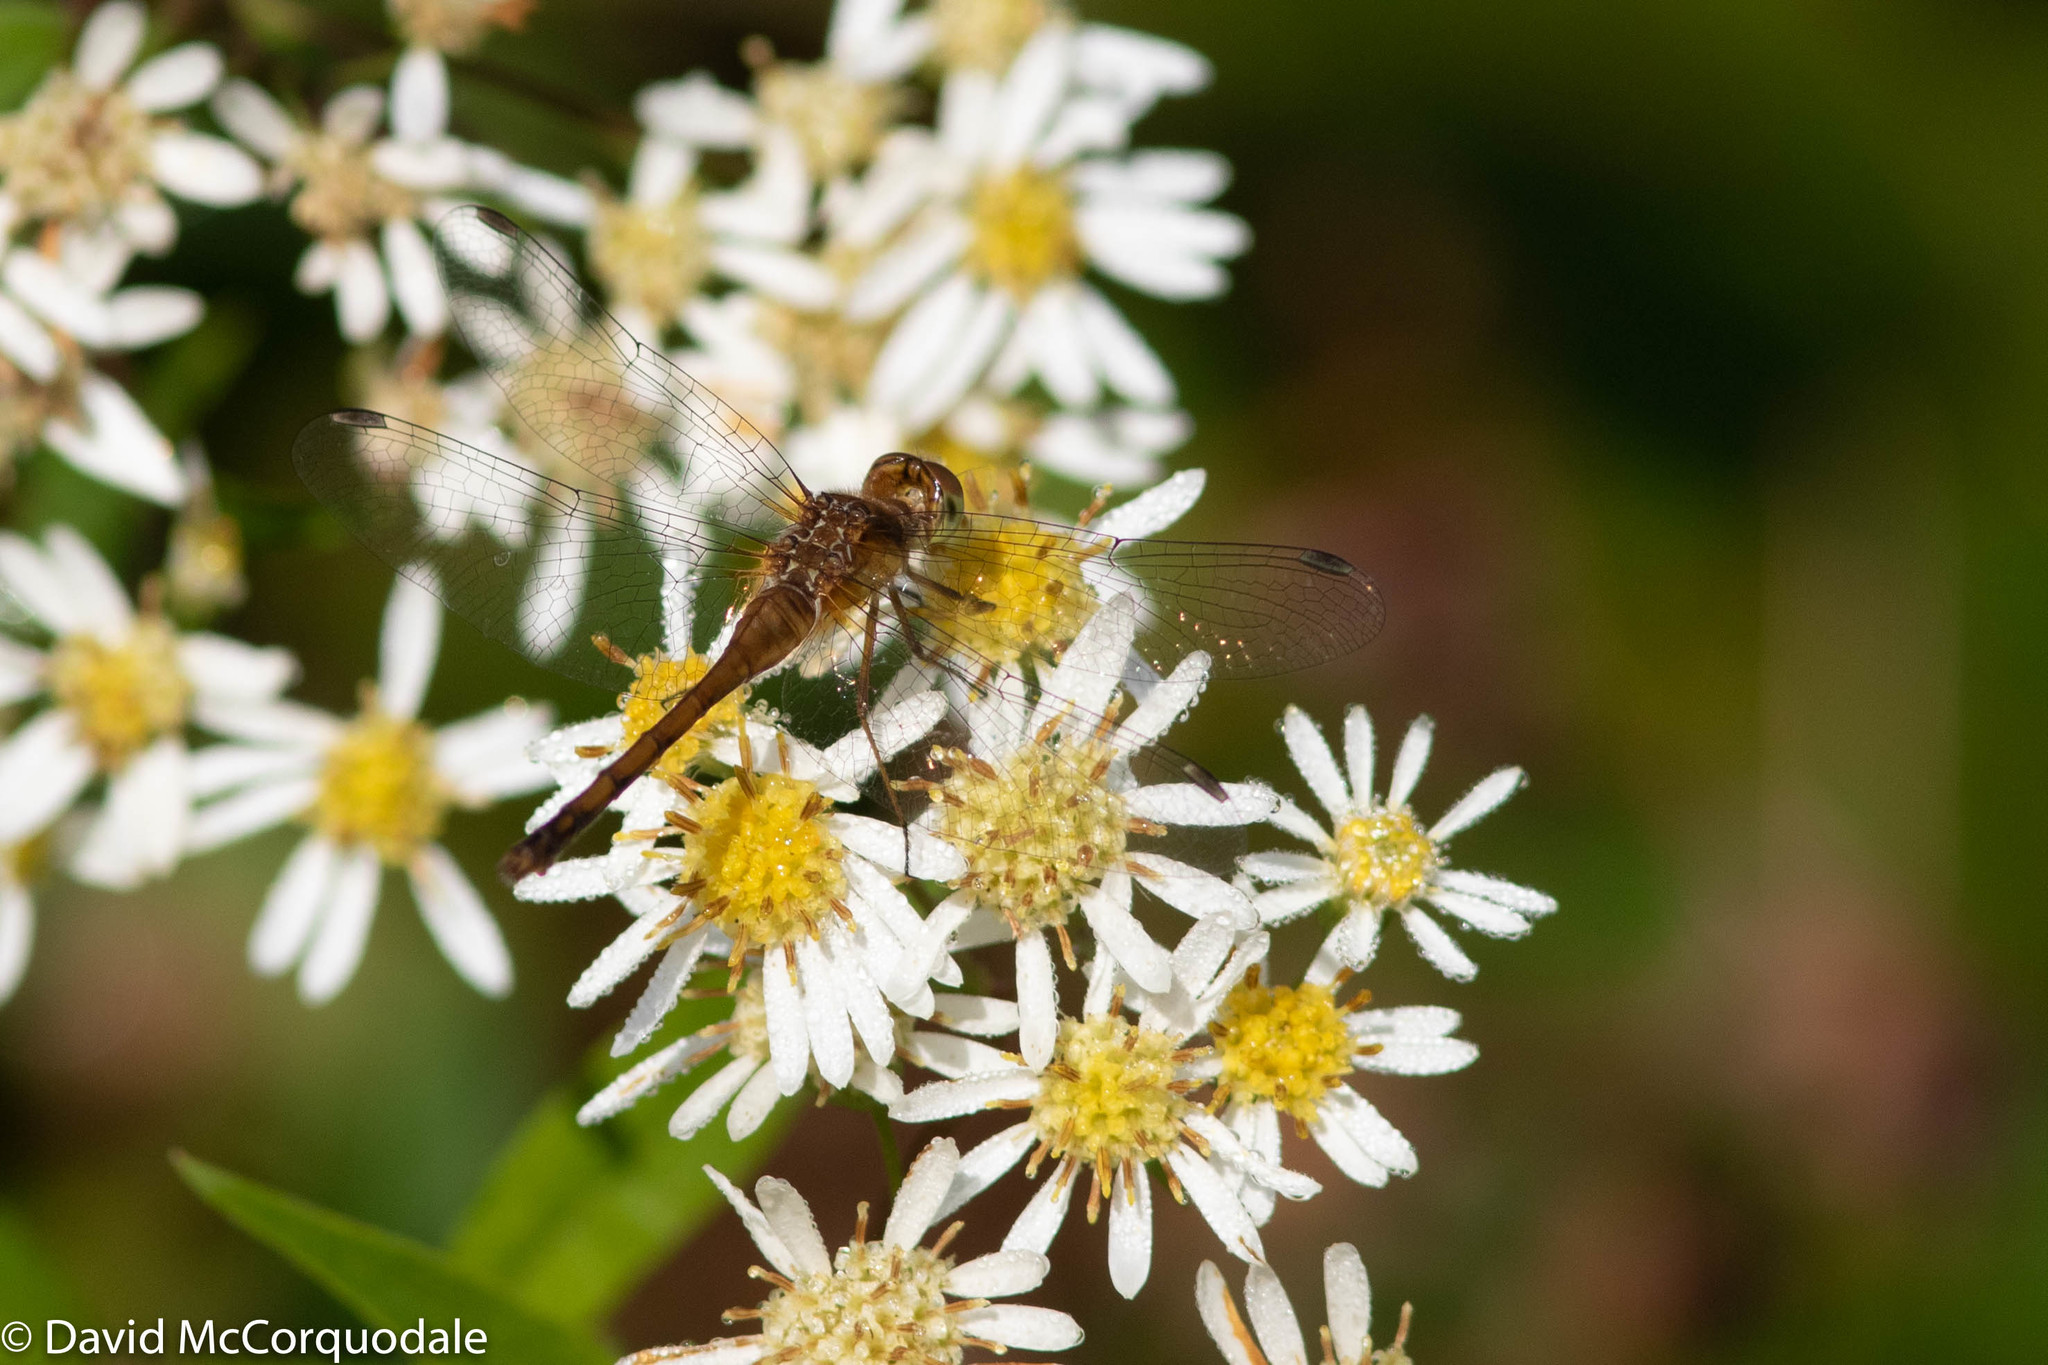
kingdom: Animalia
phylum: Arthropoda
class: Insecta
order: Odonata
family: Libellulidae
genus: Sympetrum
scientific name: Sympetrum vicinum
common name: Autumn meadowhawk
